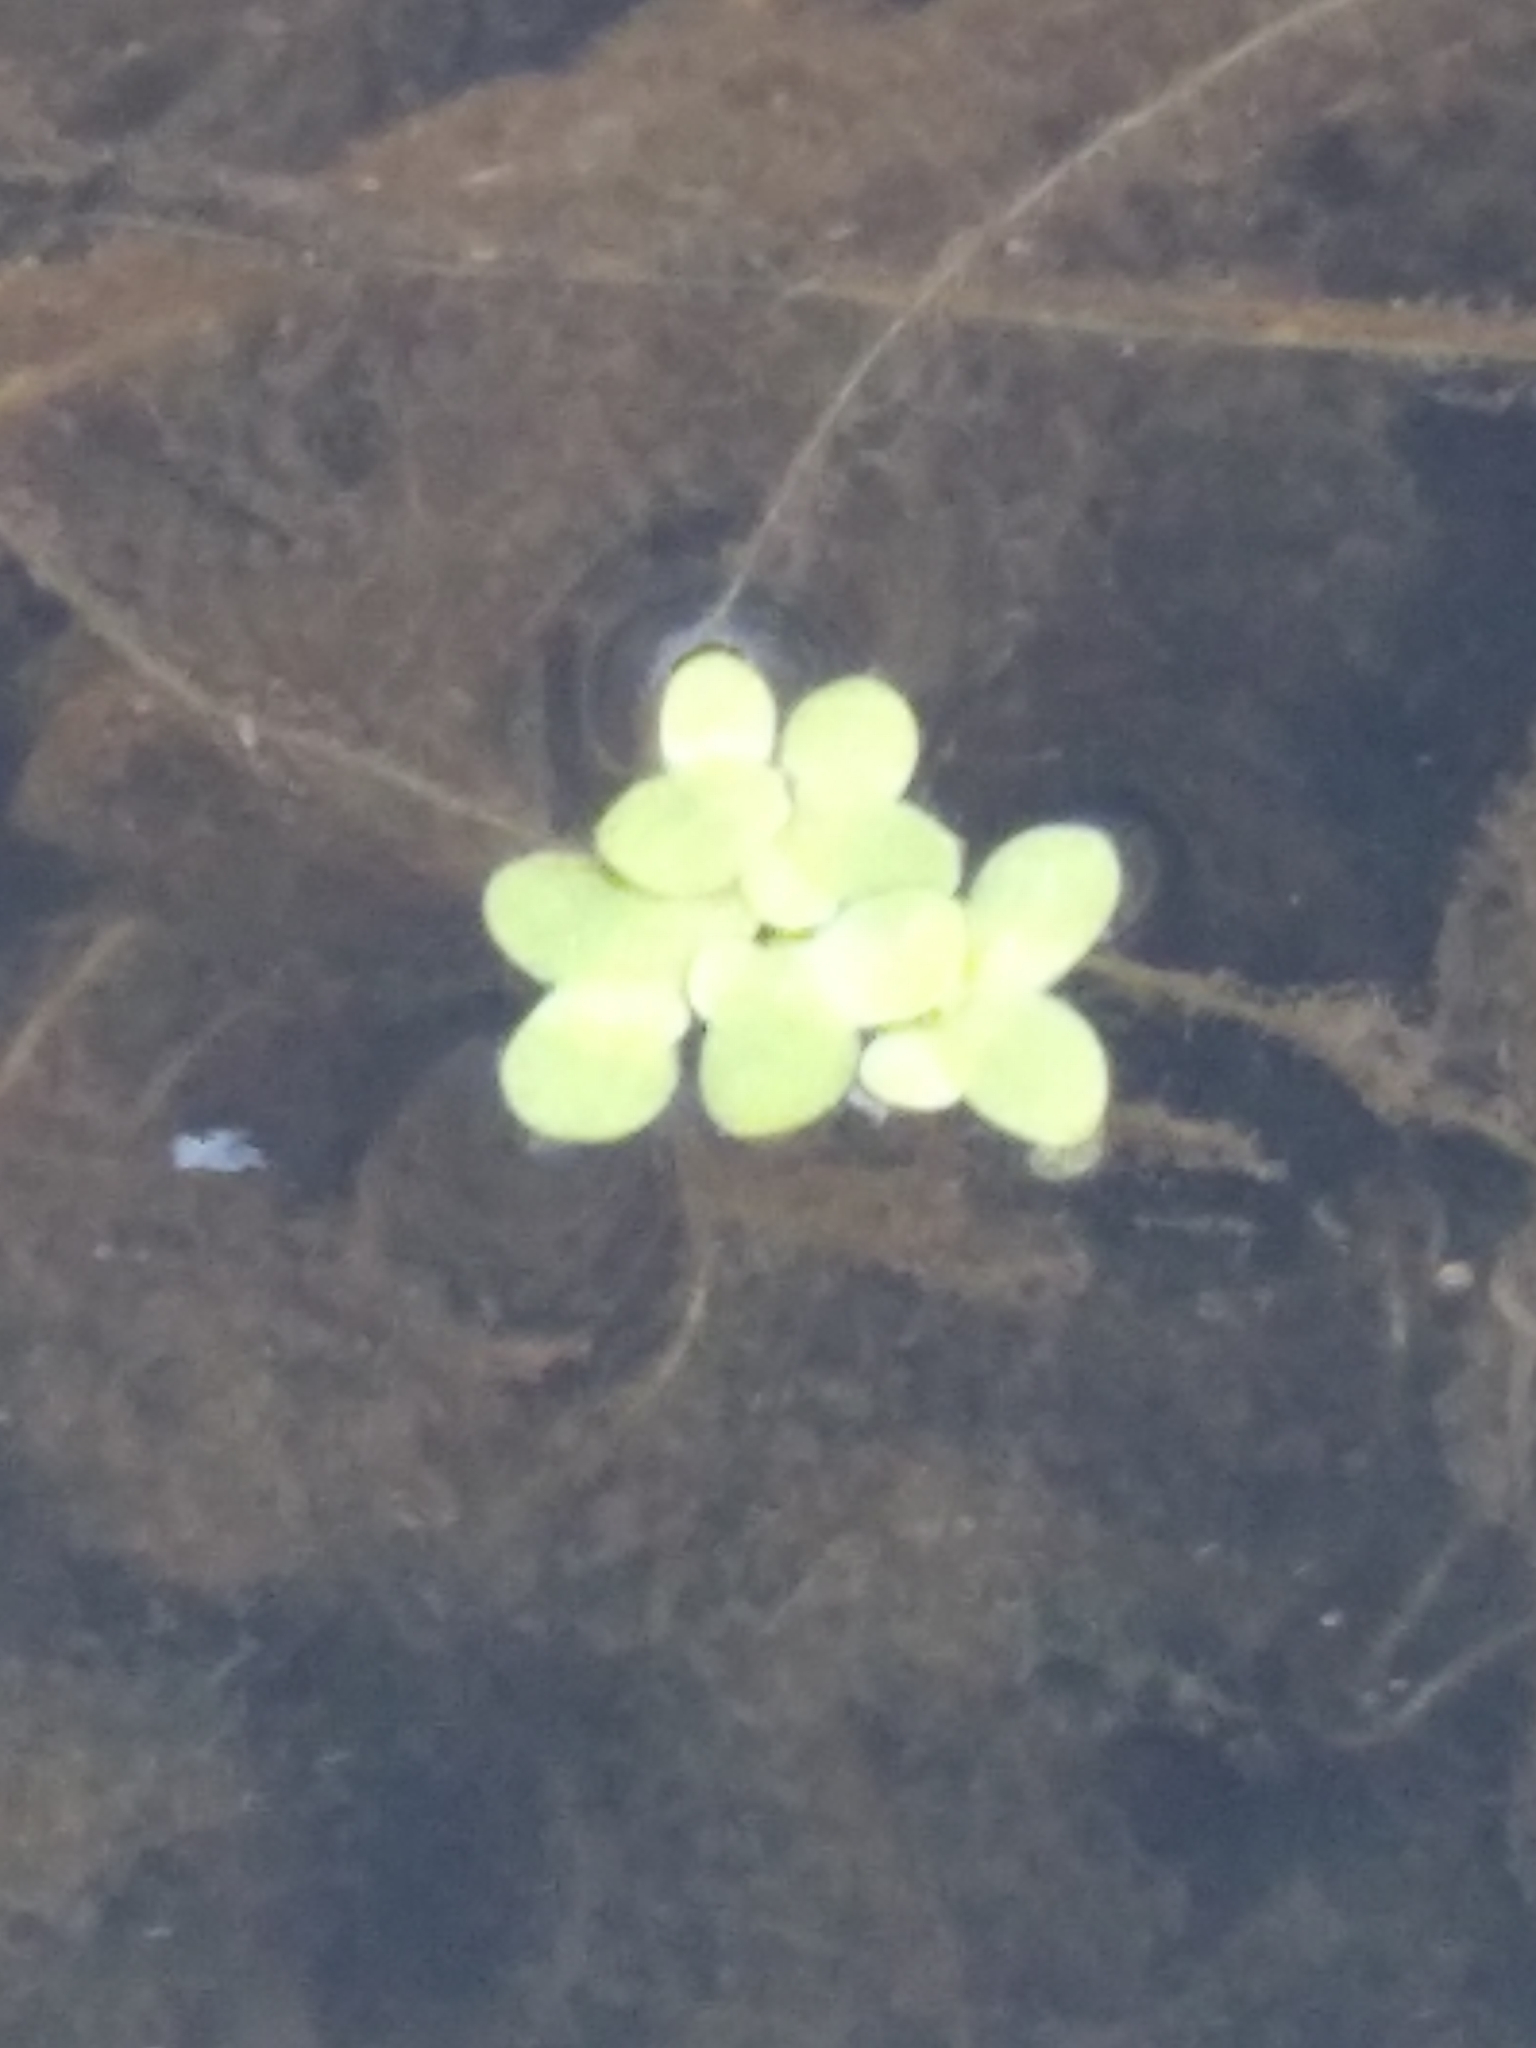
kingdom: Plantae
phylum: Tracheophyta
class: Liliopsida
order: Alismatales
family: Araceae
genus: Lemna
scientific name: Lemna minor
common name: Common duckweed
